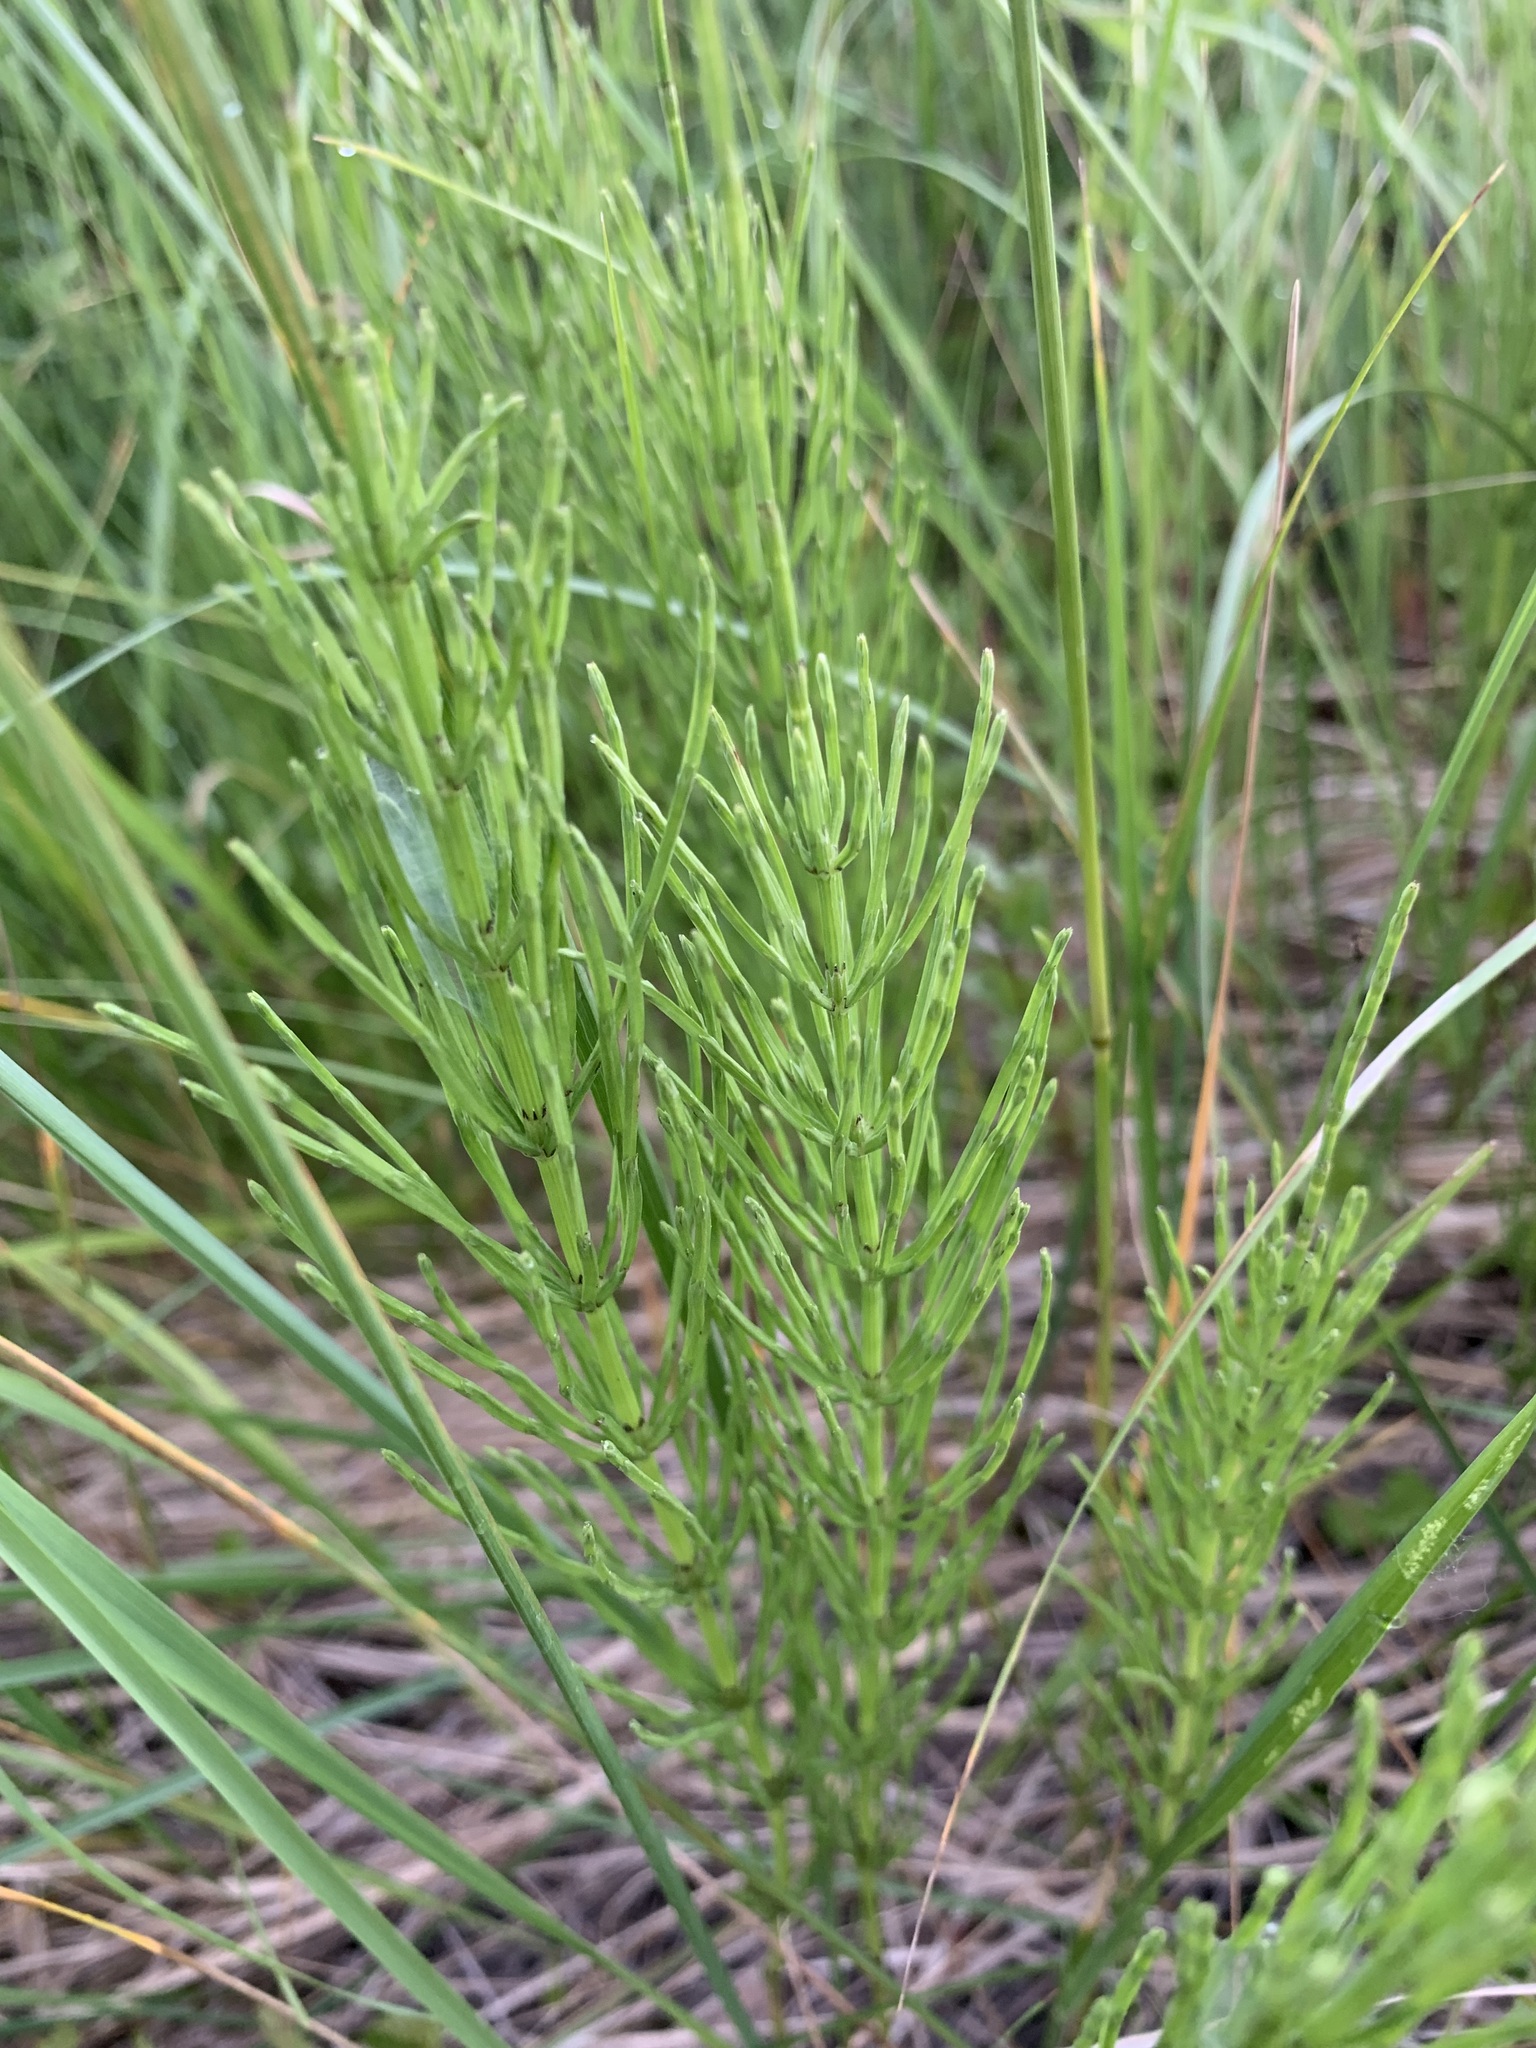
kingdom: Plantae
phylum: Tracheophyta
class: Polypodiopsida
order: Equisetales
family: Equisetaceae
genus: Equisetum
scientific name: Equisetum arvense
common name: Field horsetail
